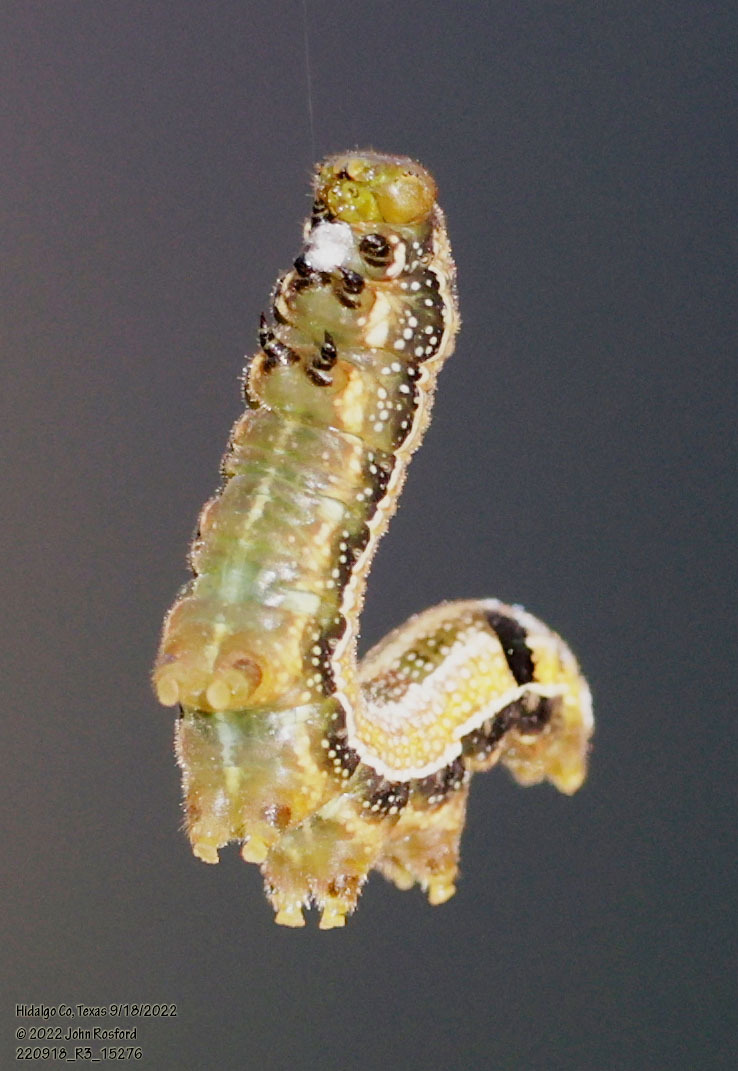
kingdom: Animalia
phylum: Arthropoda
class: Insecta
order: Lepidoptera
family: Nymphalidae
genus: Libytheana
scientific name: Libytheana carinenta
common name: American snout
